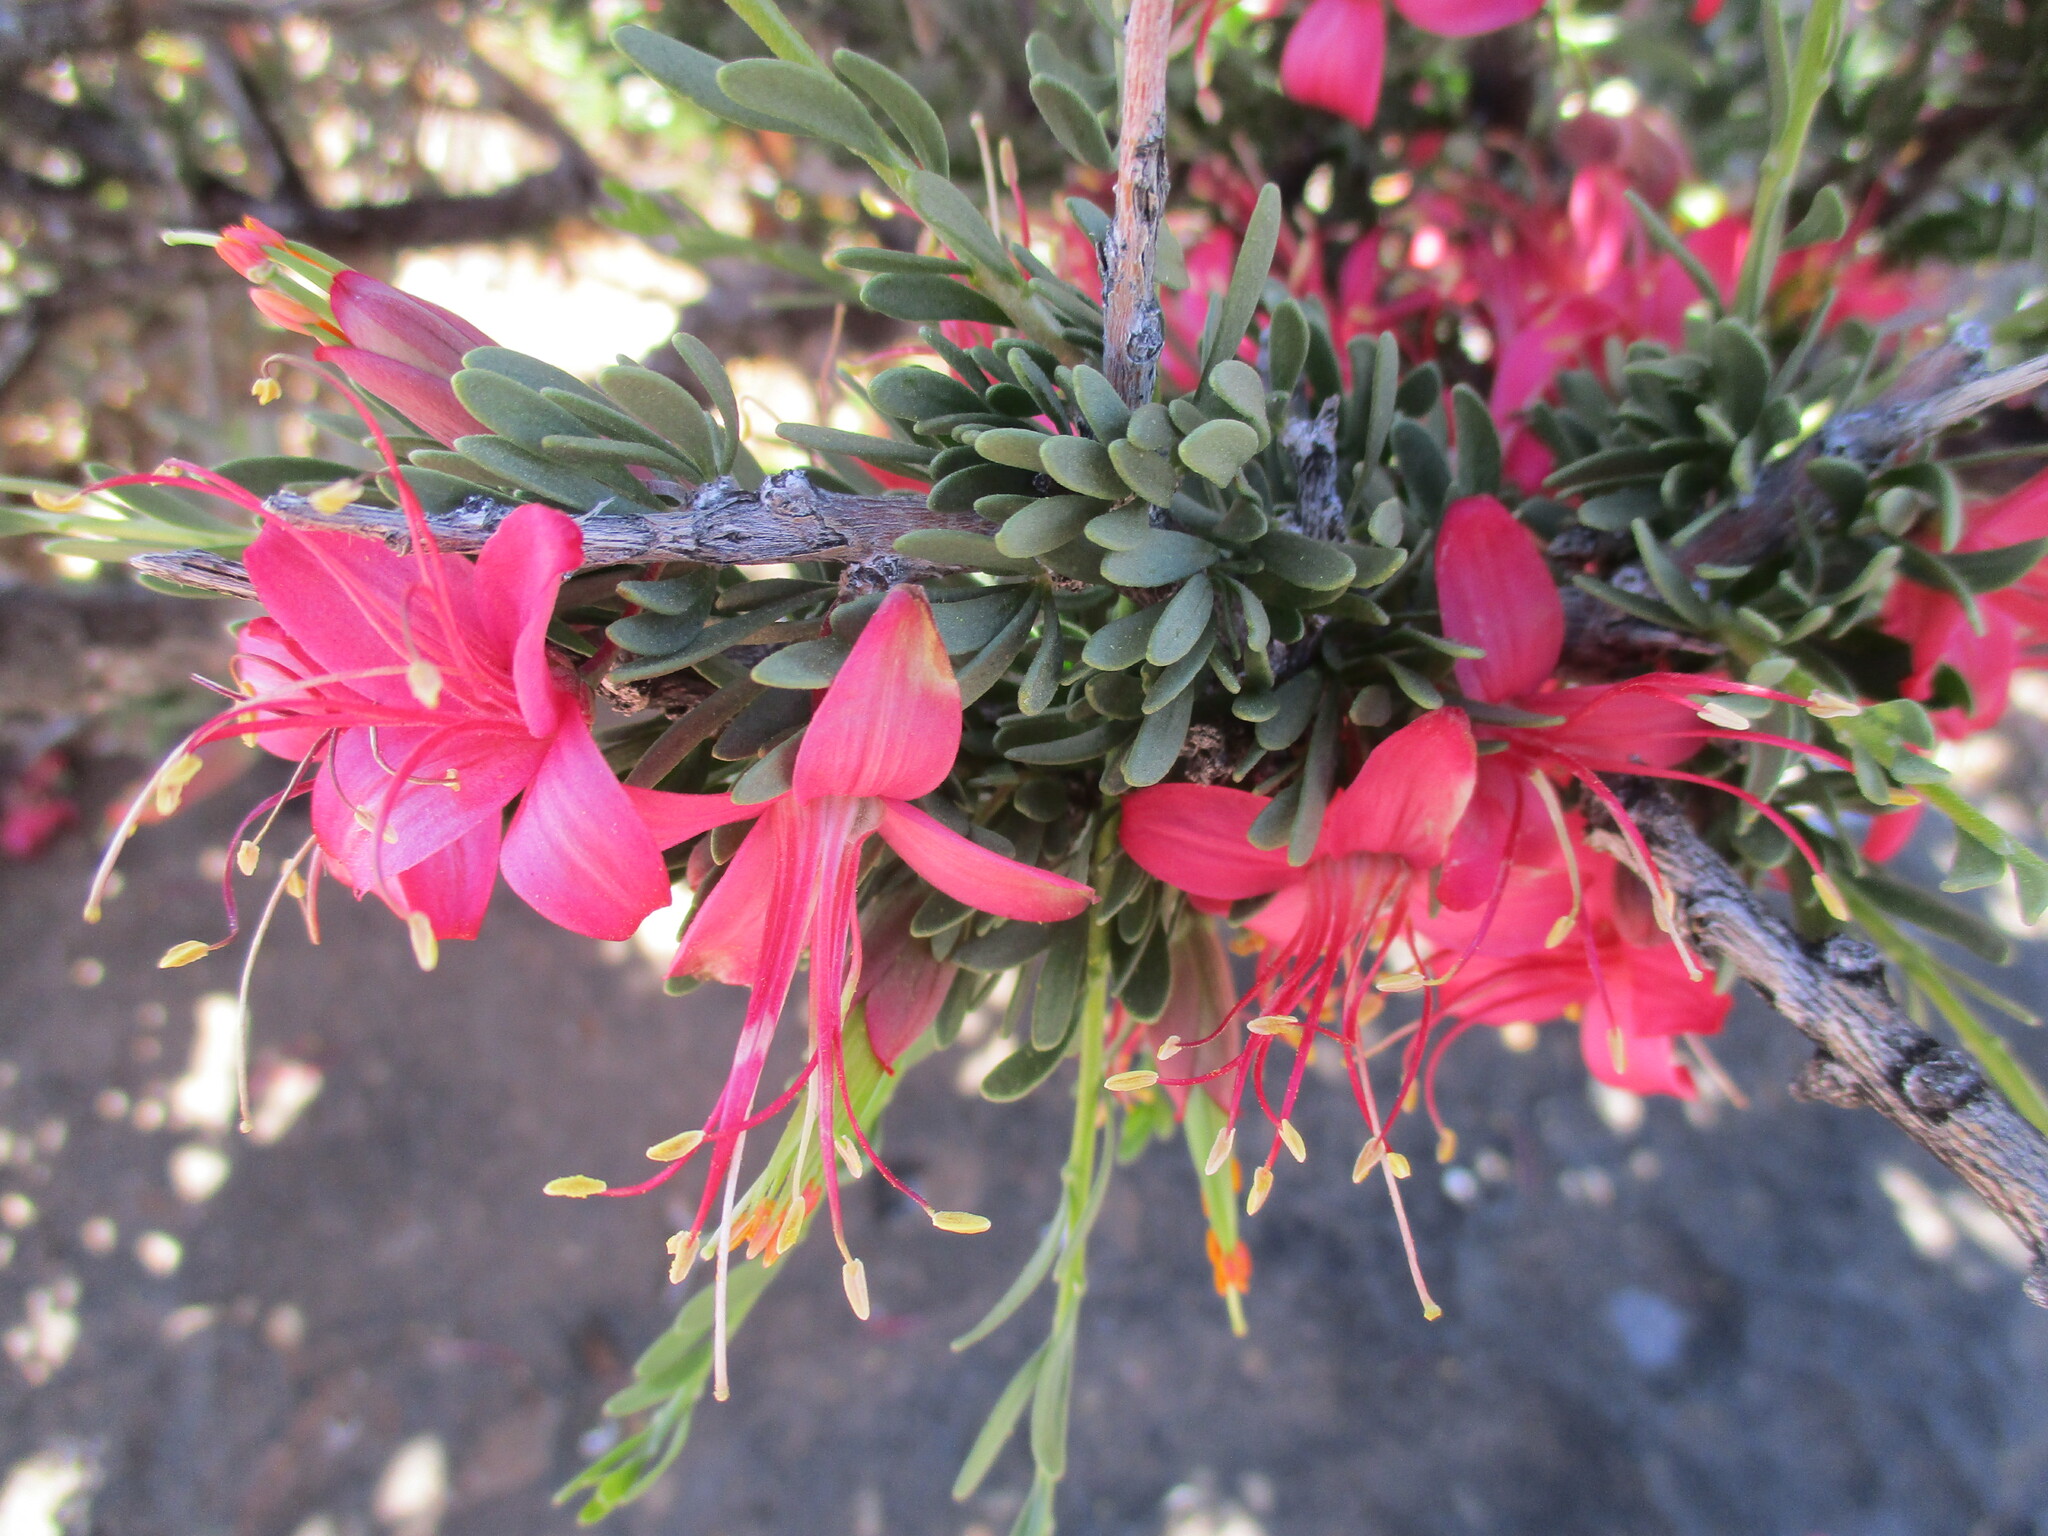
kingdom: Plantae
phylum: Tracheophyta
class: Magnoliopsida
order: Sapindales
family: Meliaceae
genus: Nymania
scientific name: Nymania capensis
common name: Chinese lantern tree
